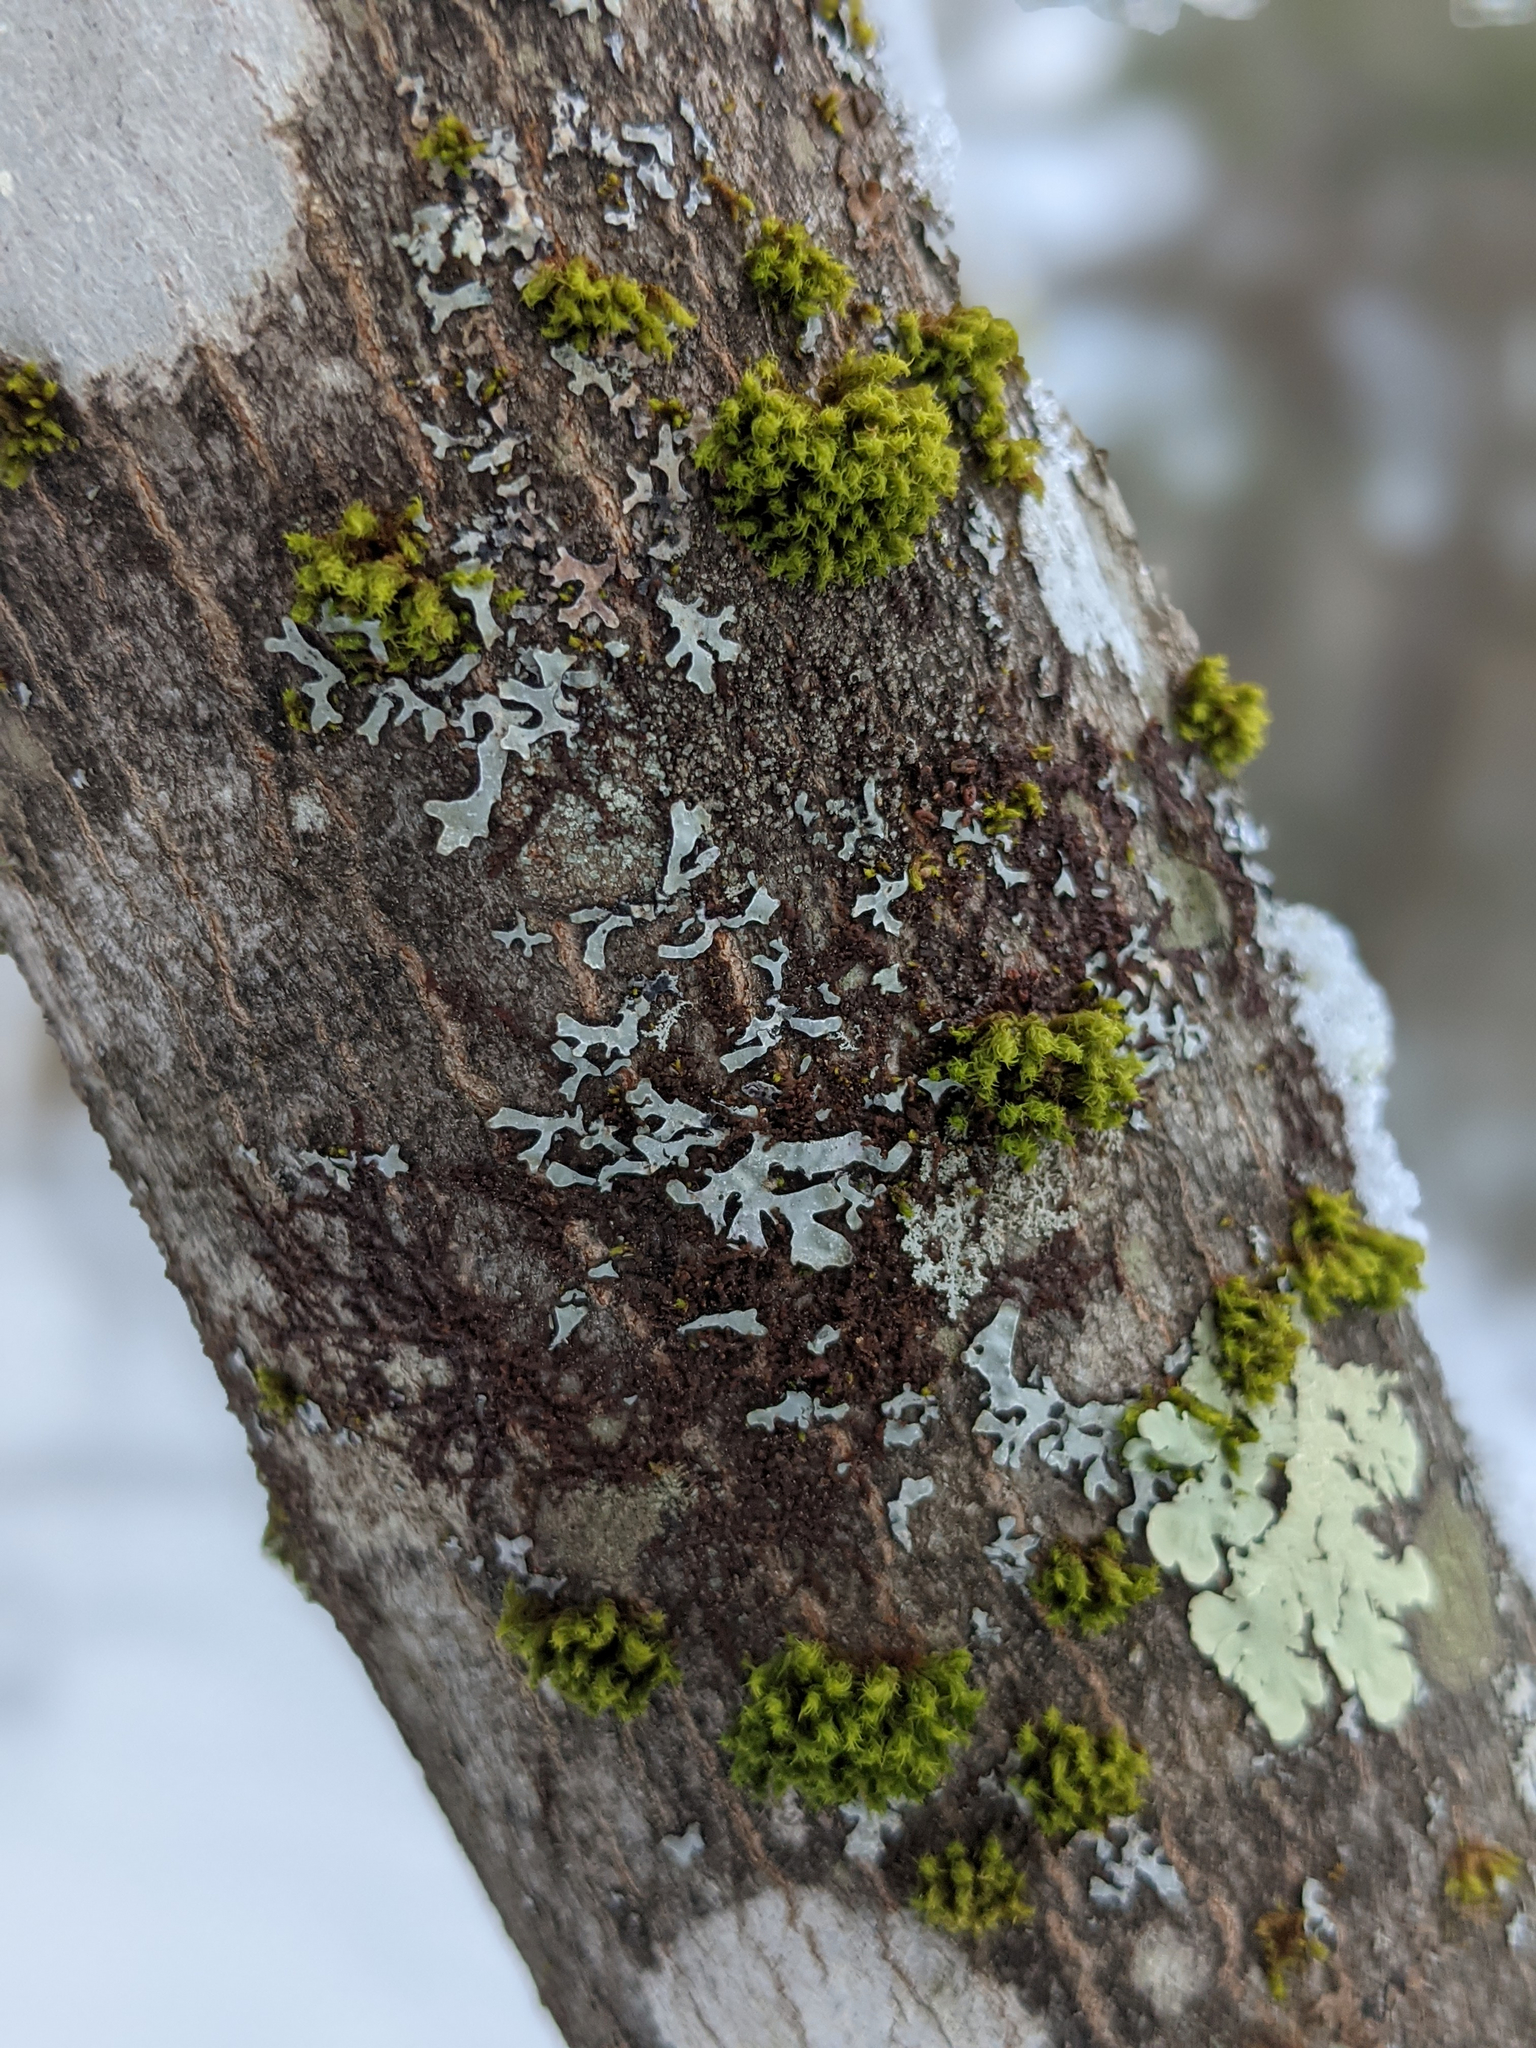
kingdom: Plantae
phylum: Bryophyta
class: Bryopsida
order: Orthotrichales
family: Orthotrichaceae
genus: Ulota
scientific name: Ulota crispa
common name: Crisped pincushion moss
